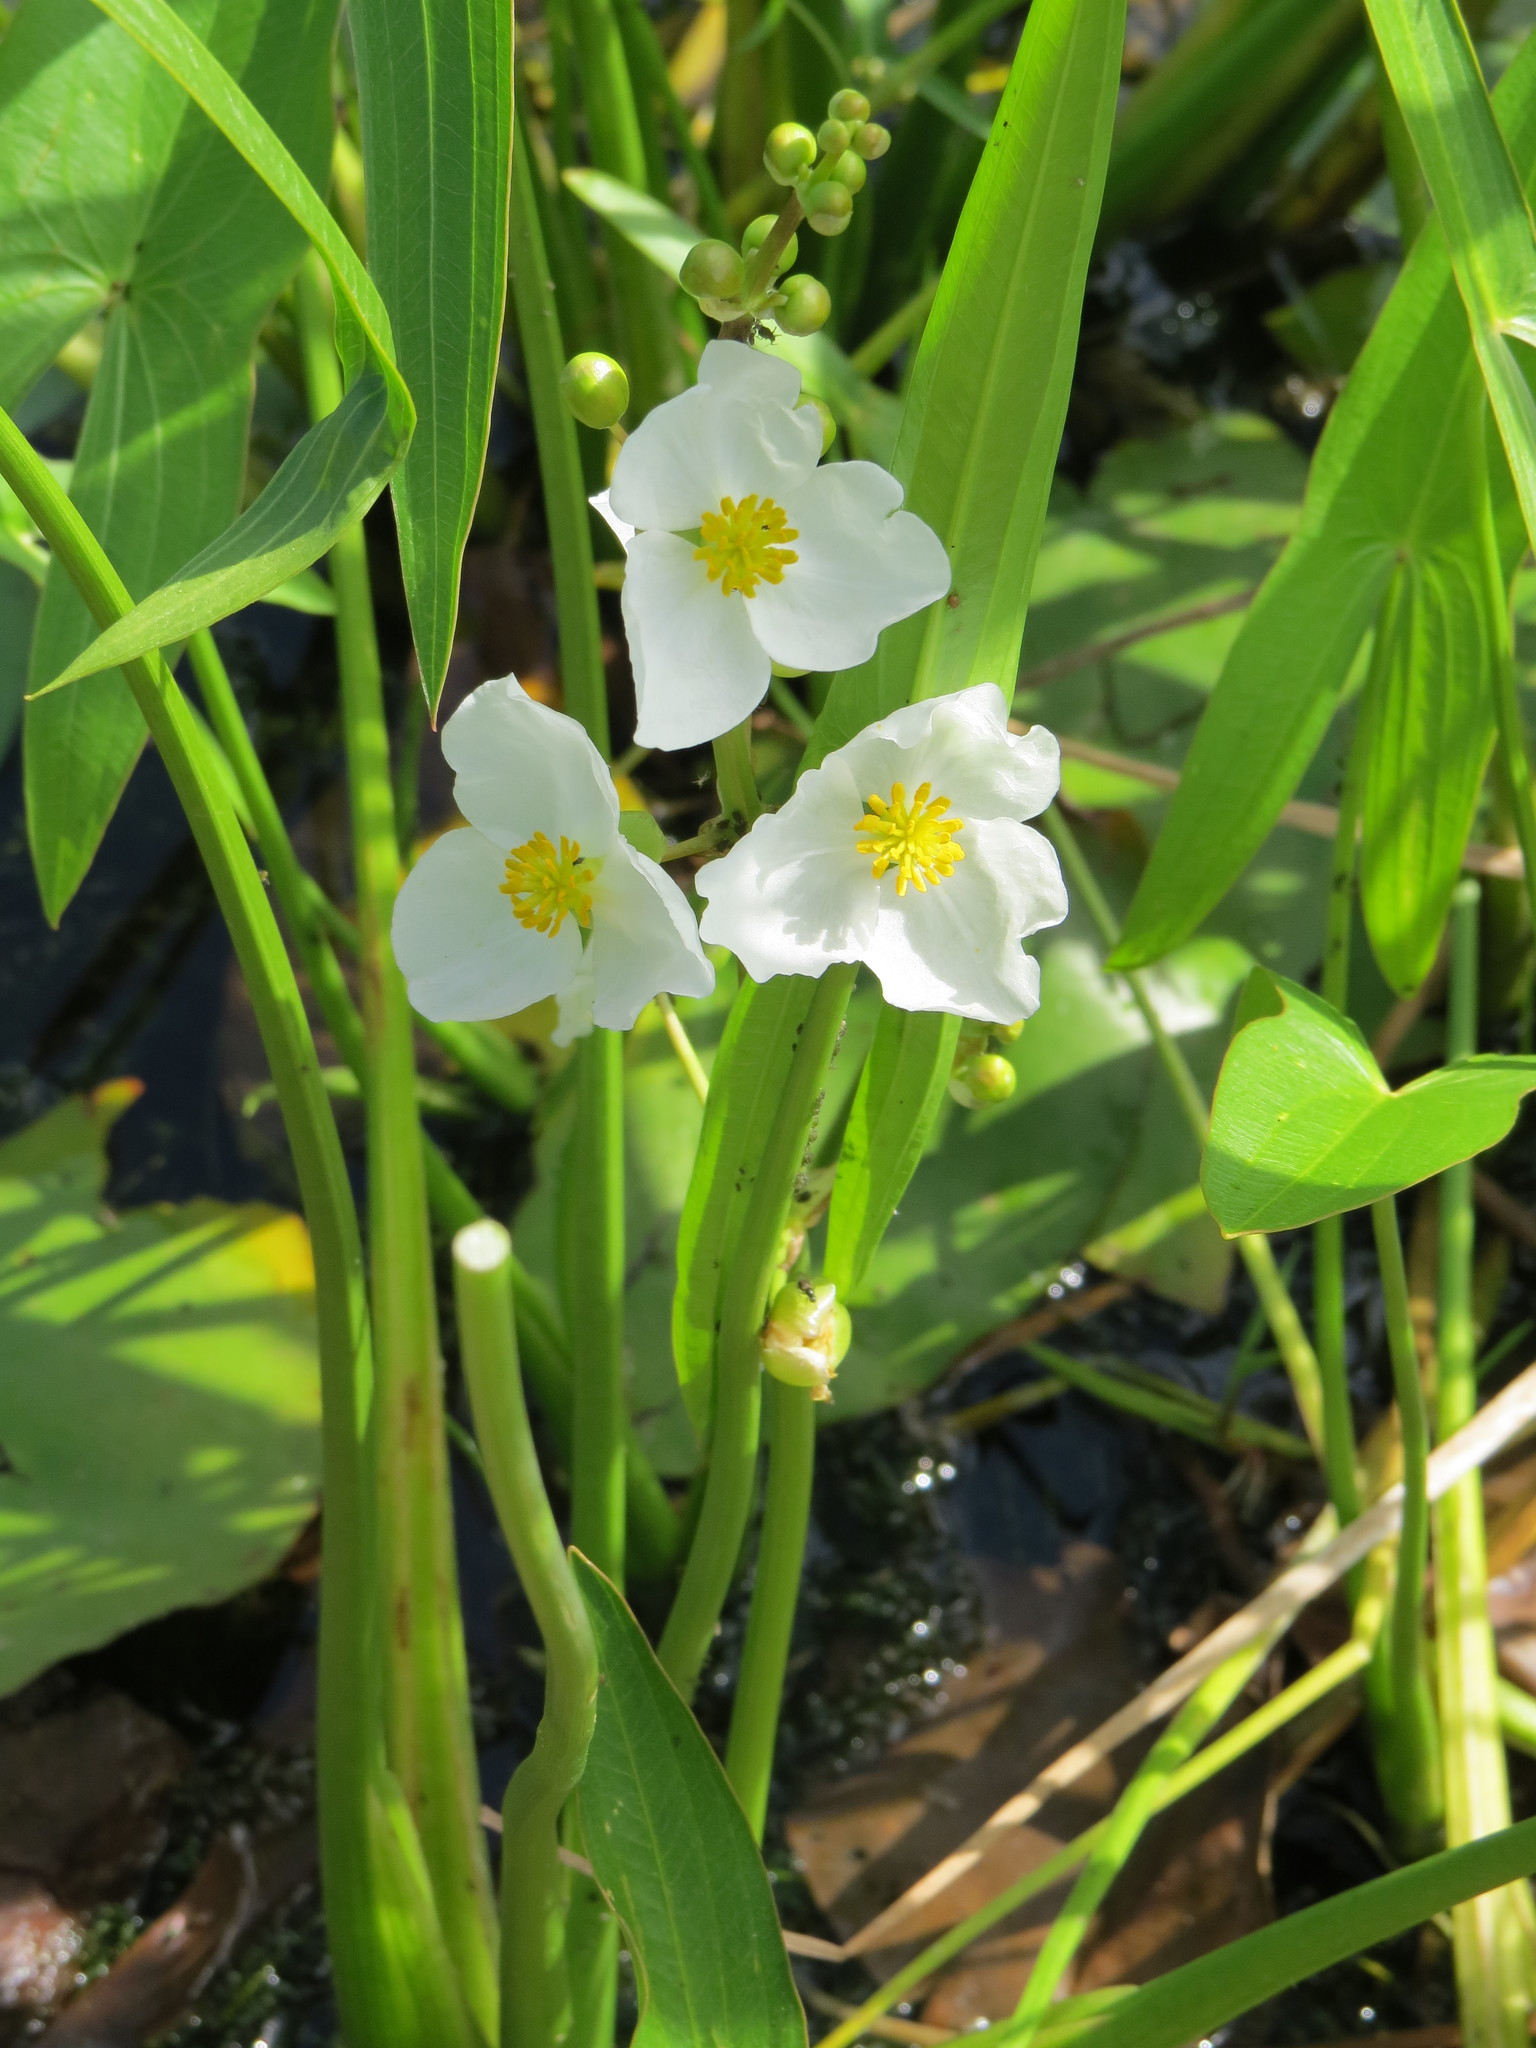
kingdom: Plantae
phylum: Tracheophyta
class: Liliopsida
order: Alismatales
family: Alismataceae
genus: Sagittaria
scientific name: Sagittaria latifolia
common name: Duck-potato
